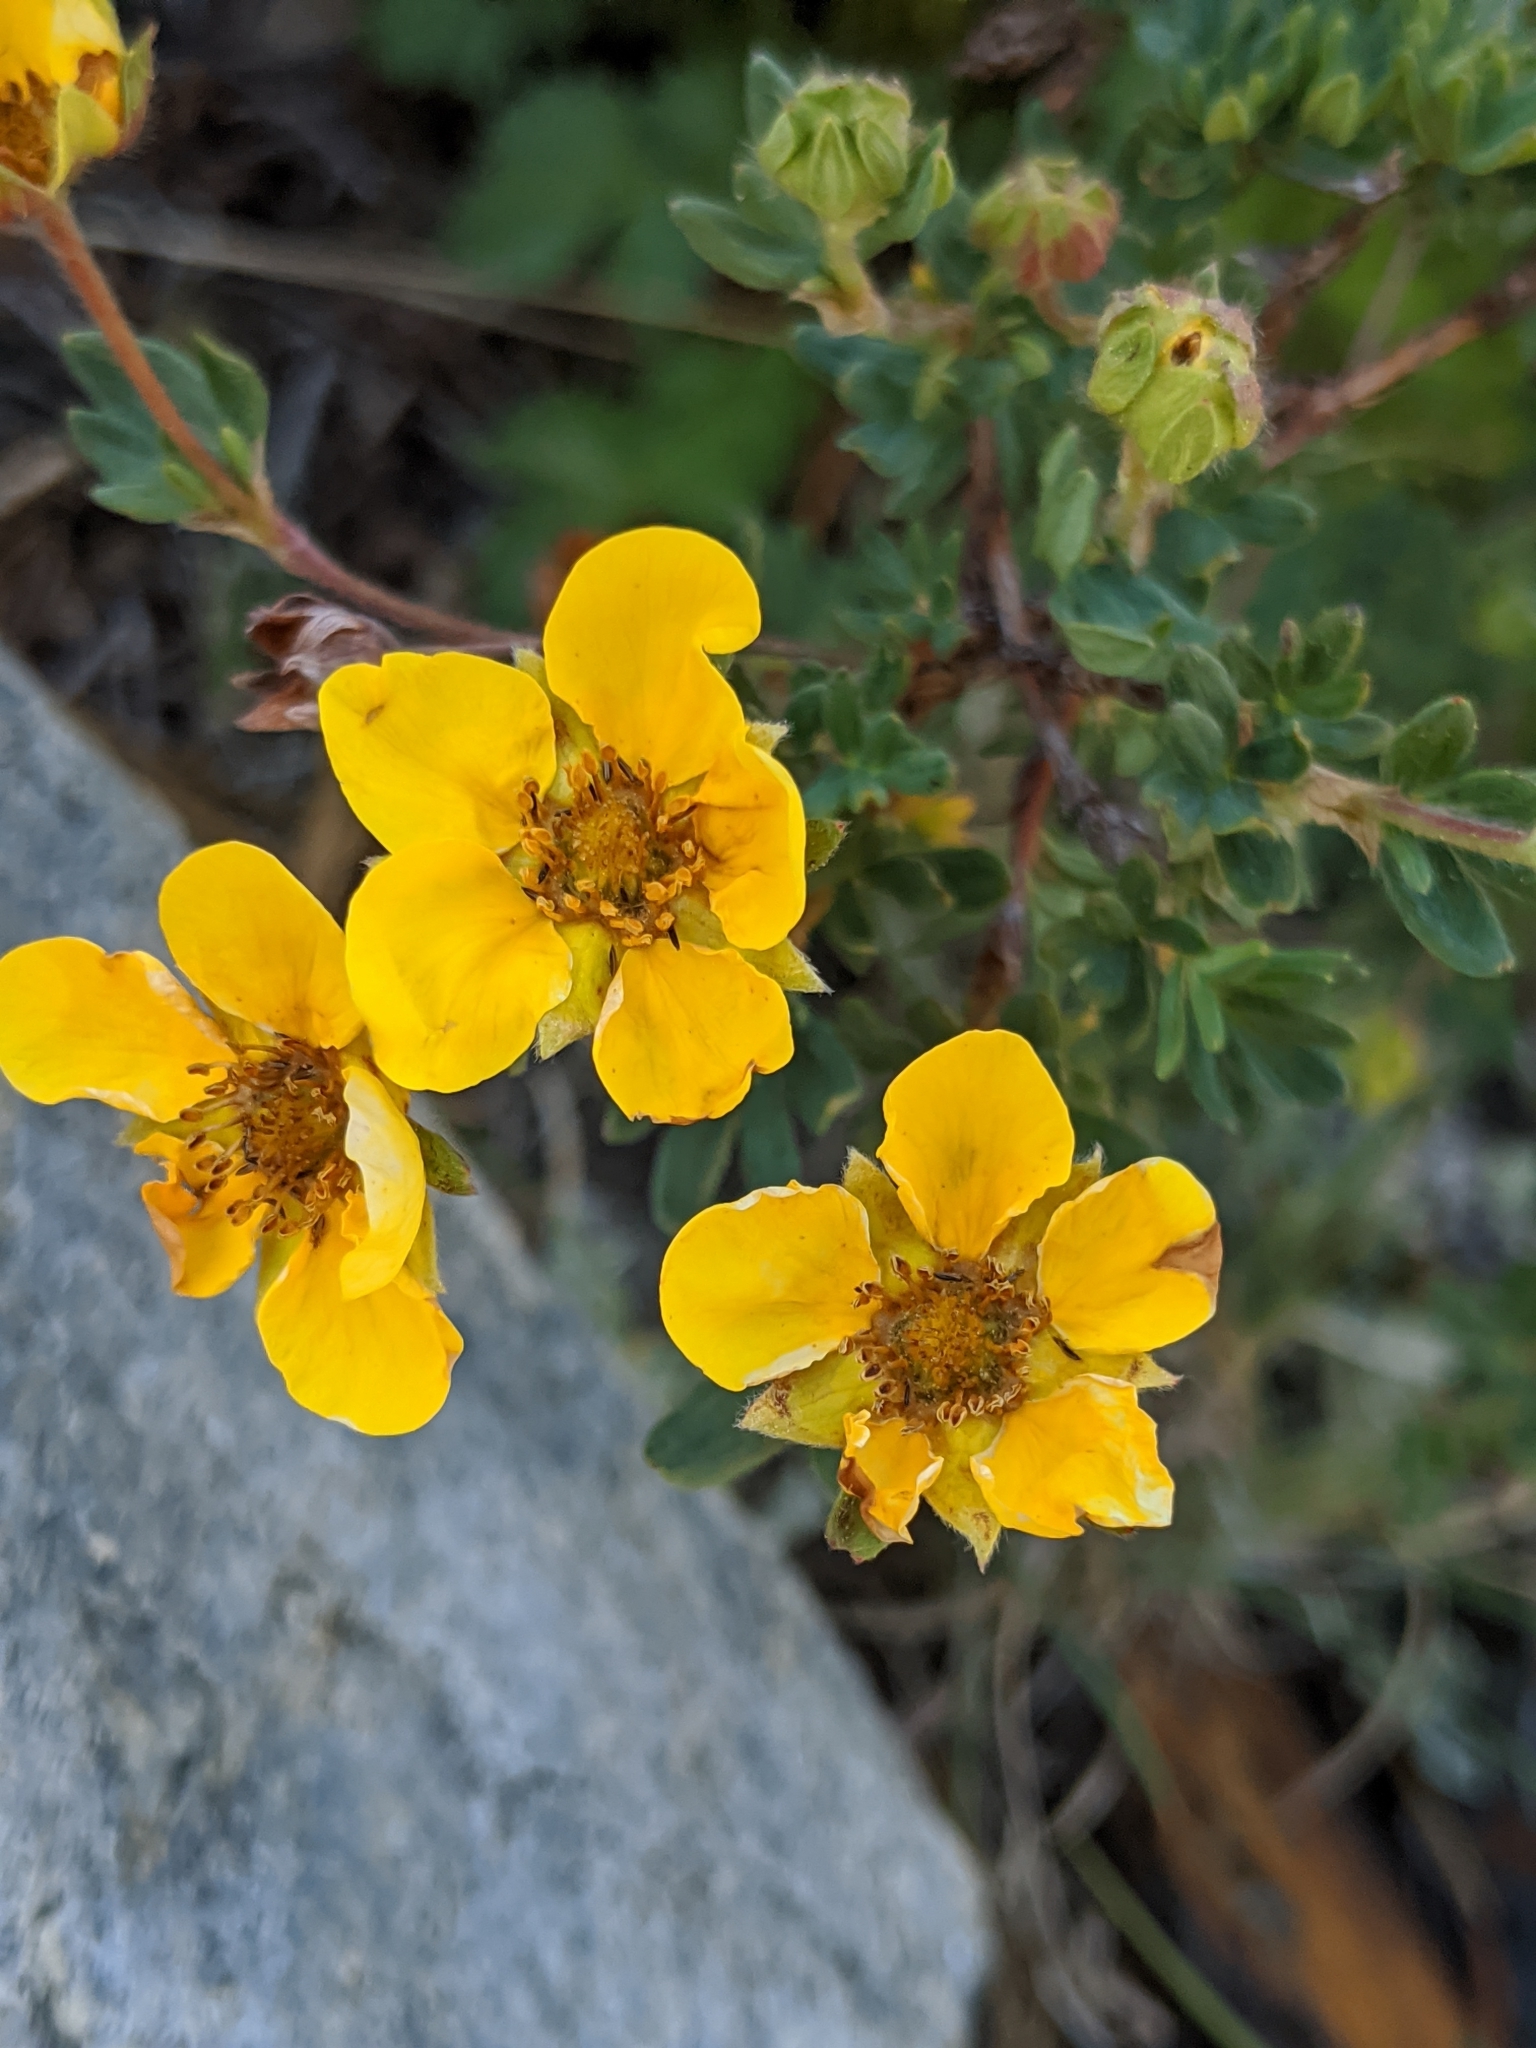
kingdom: Plantae
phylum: Tracheophyta
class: Magnoliopsida
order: Rosales
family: Rosaceae
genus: Dasiphora
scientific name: Dasiphora fruticosa
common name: Shrubby cinquefoil
